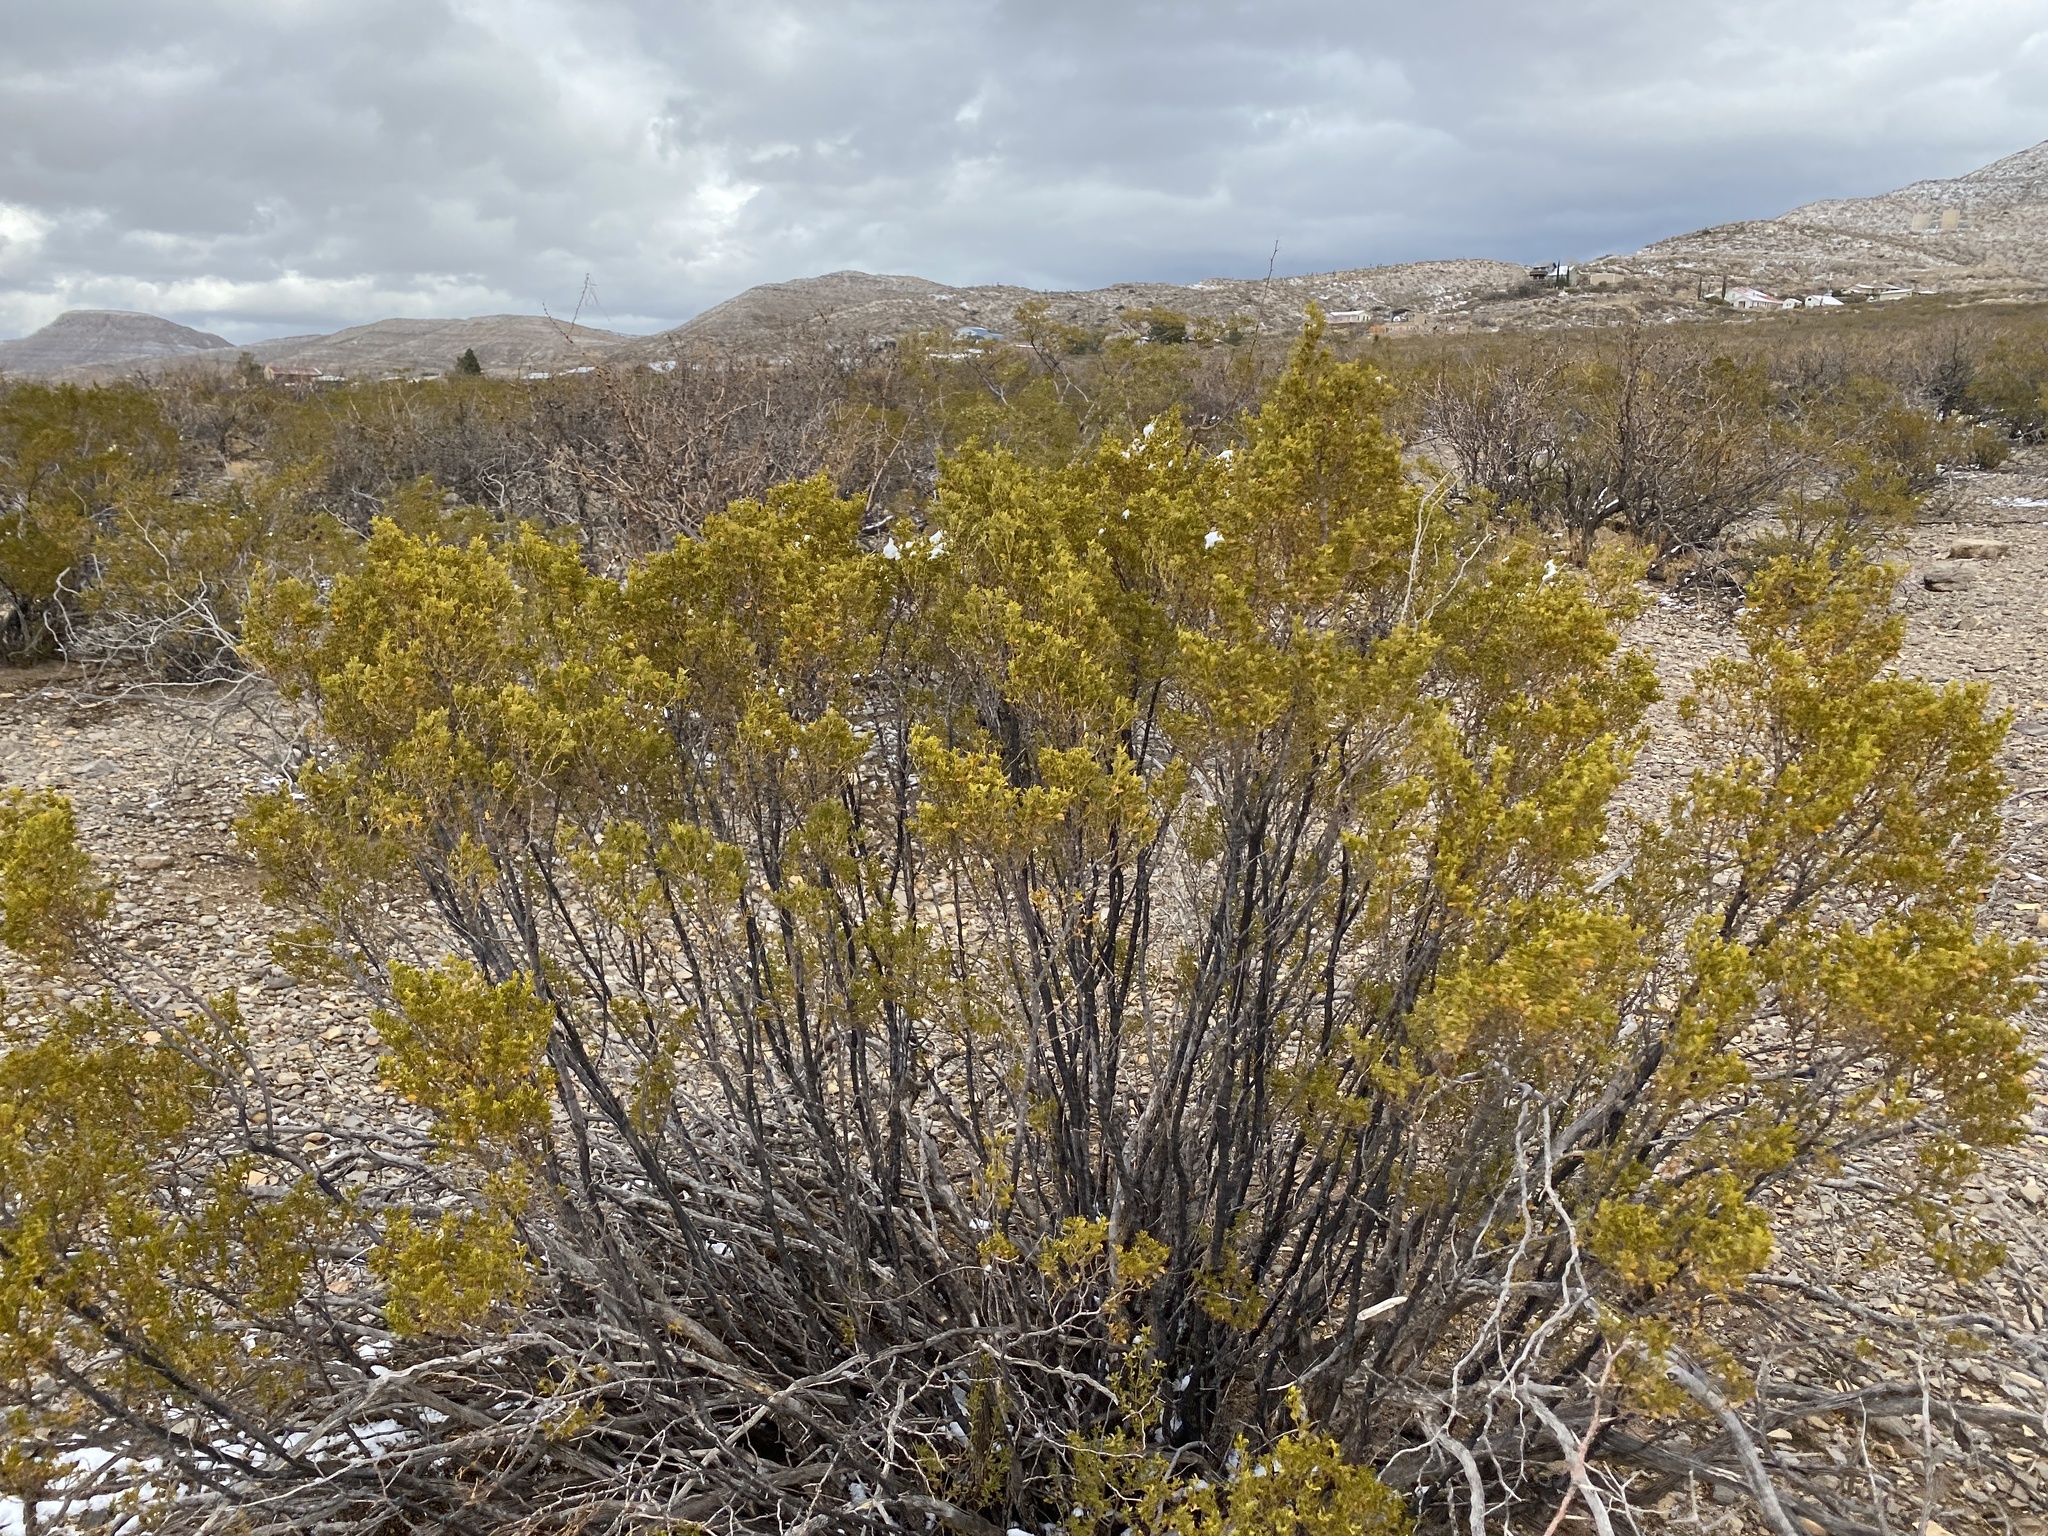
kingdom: Plantae
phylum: Tracheophyta
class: Magnoliopsida
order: Zygophyllales
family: Zygophyllaceae
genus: Larrea
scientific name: Larrea tridentata
